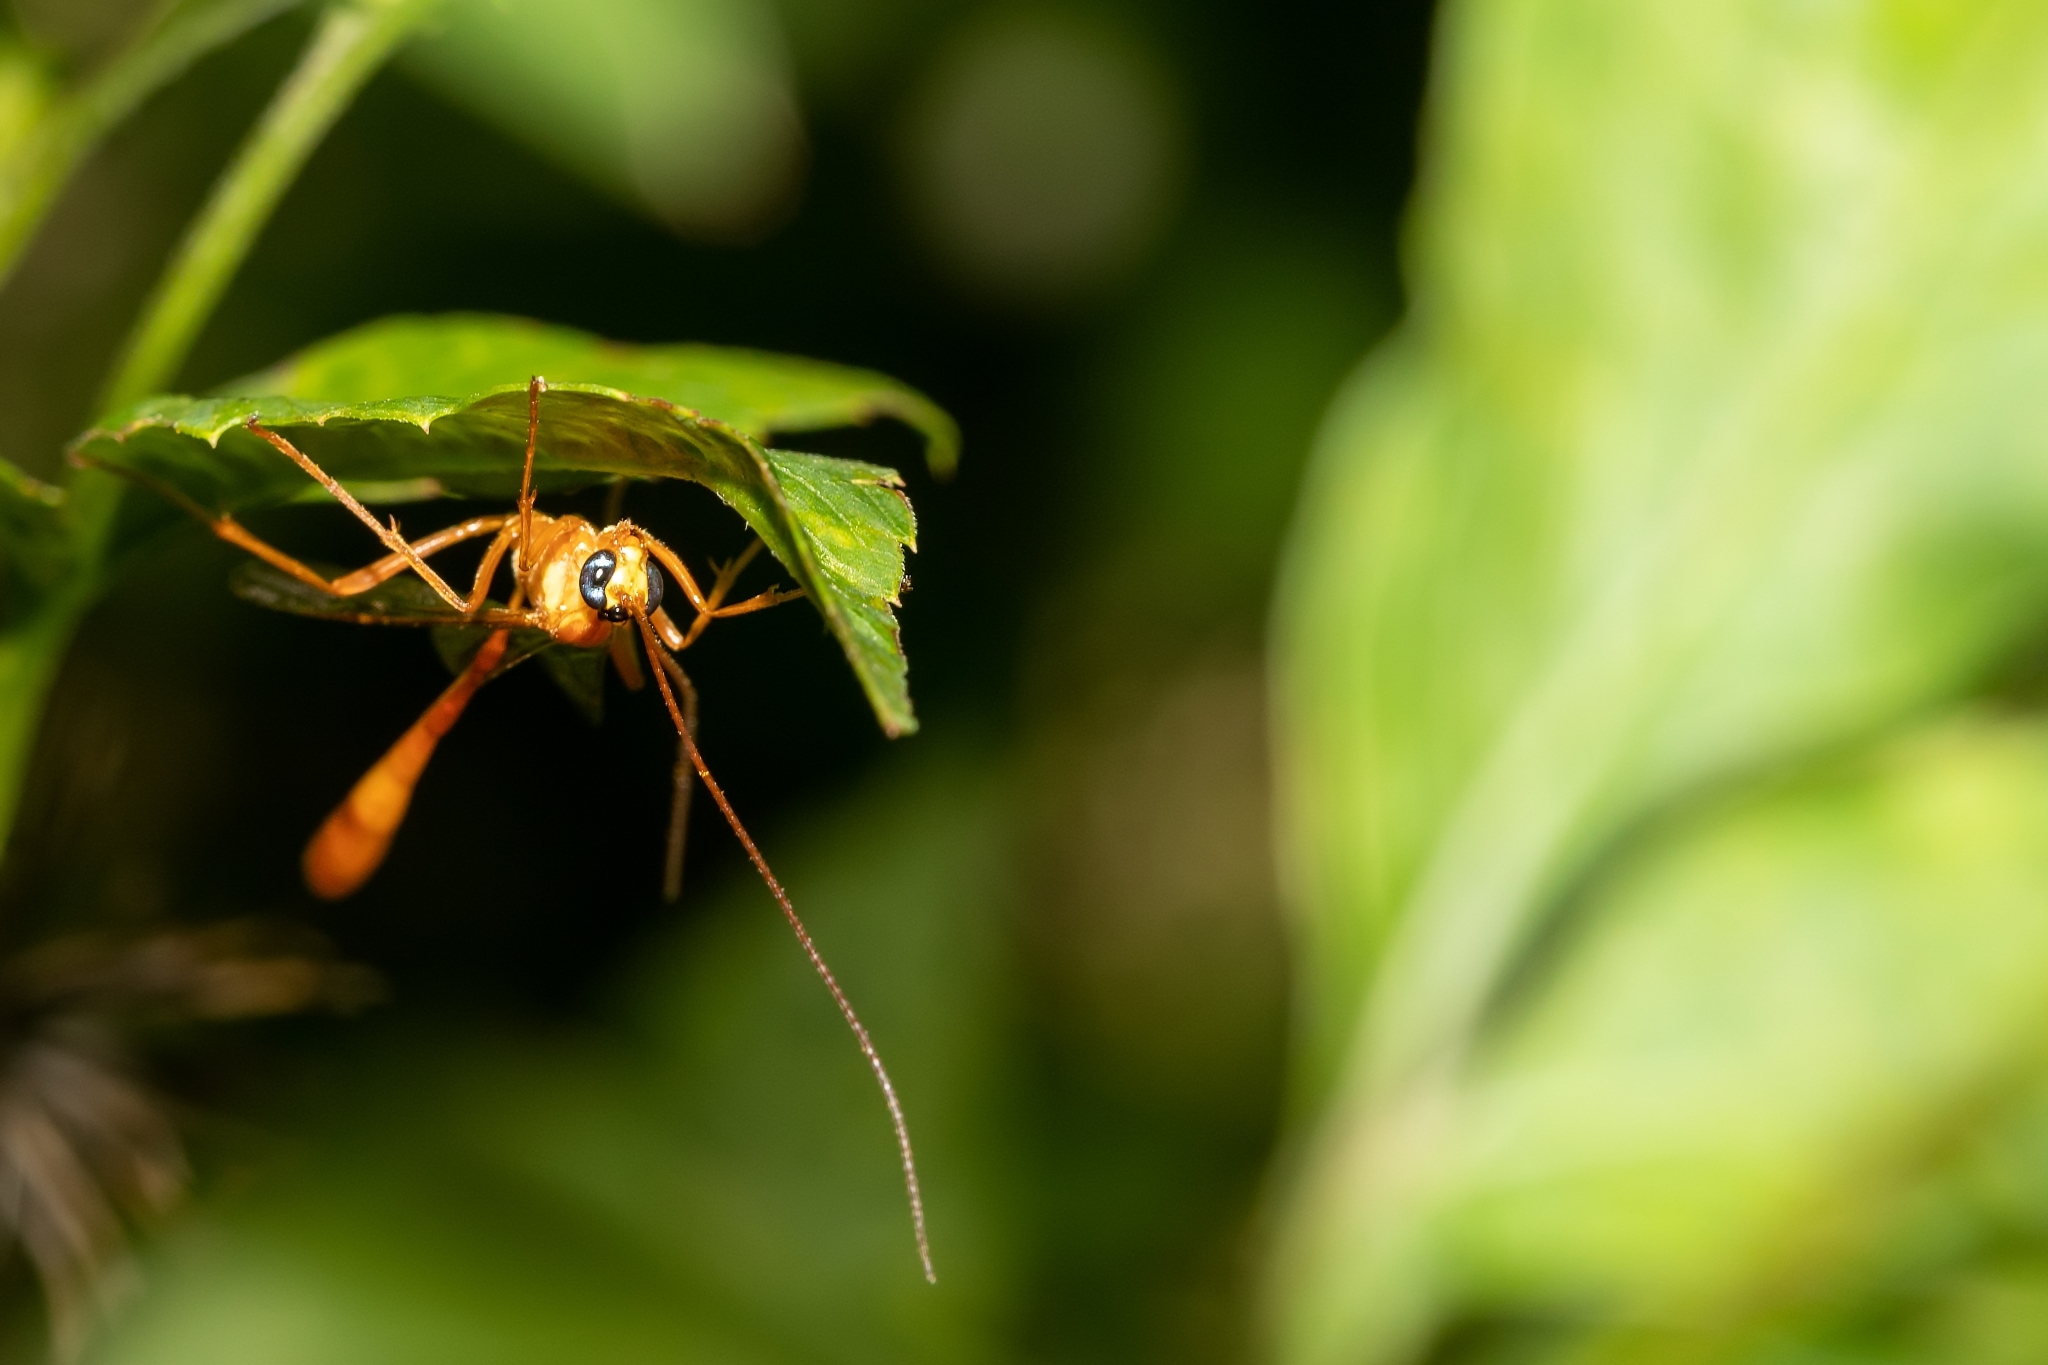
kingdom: Animalia
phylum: Arthropoda
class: Insecta
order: Hymenoptera
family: Ichneumonidae
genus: Enicospilus
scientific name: Enicospilus flavostigma
